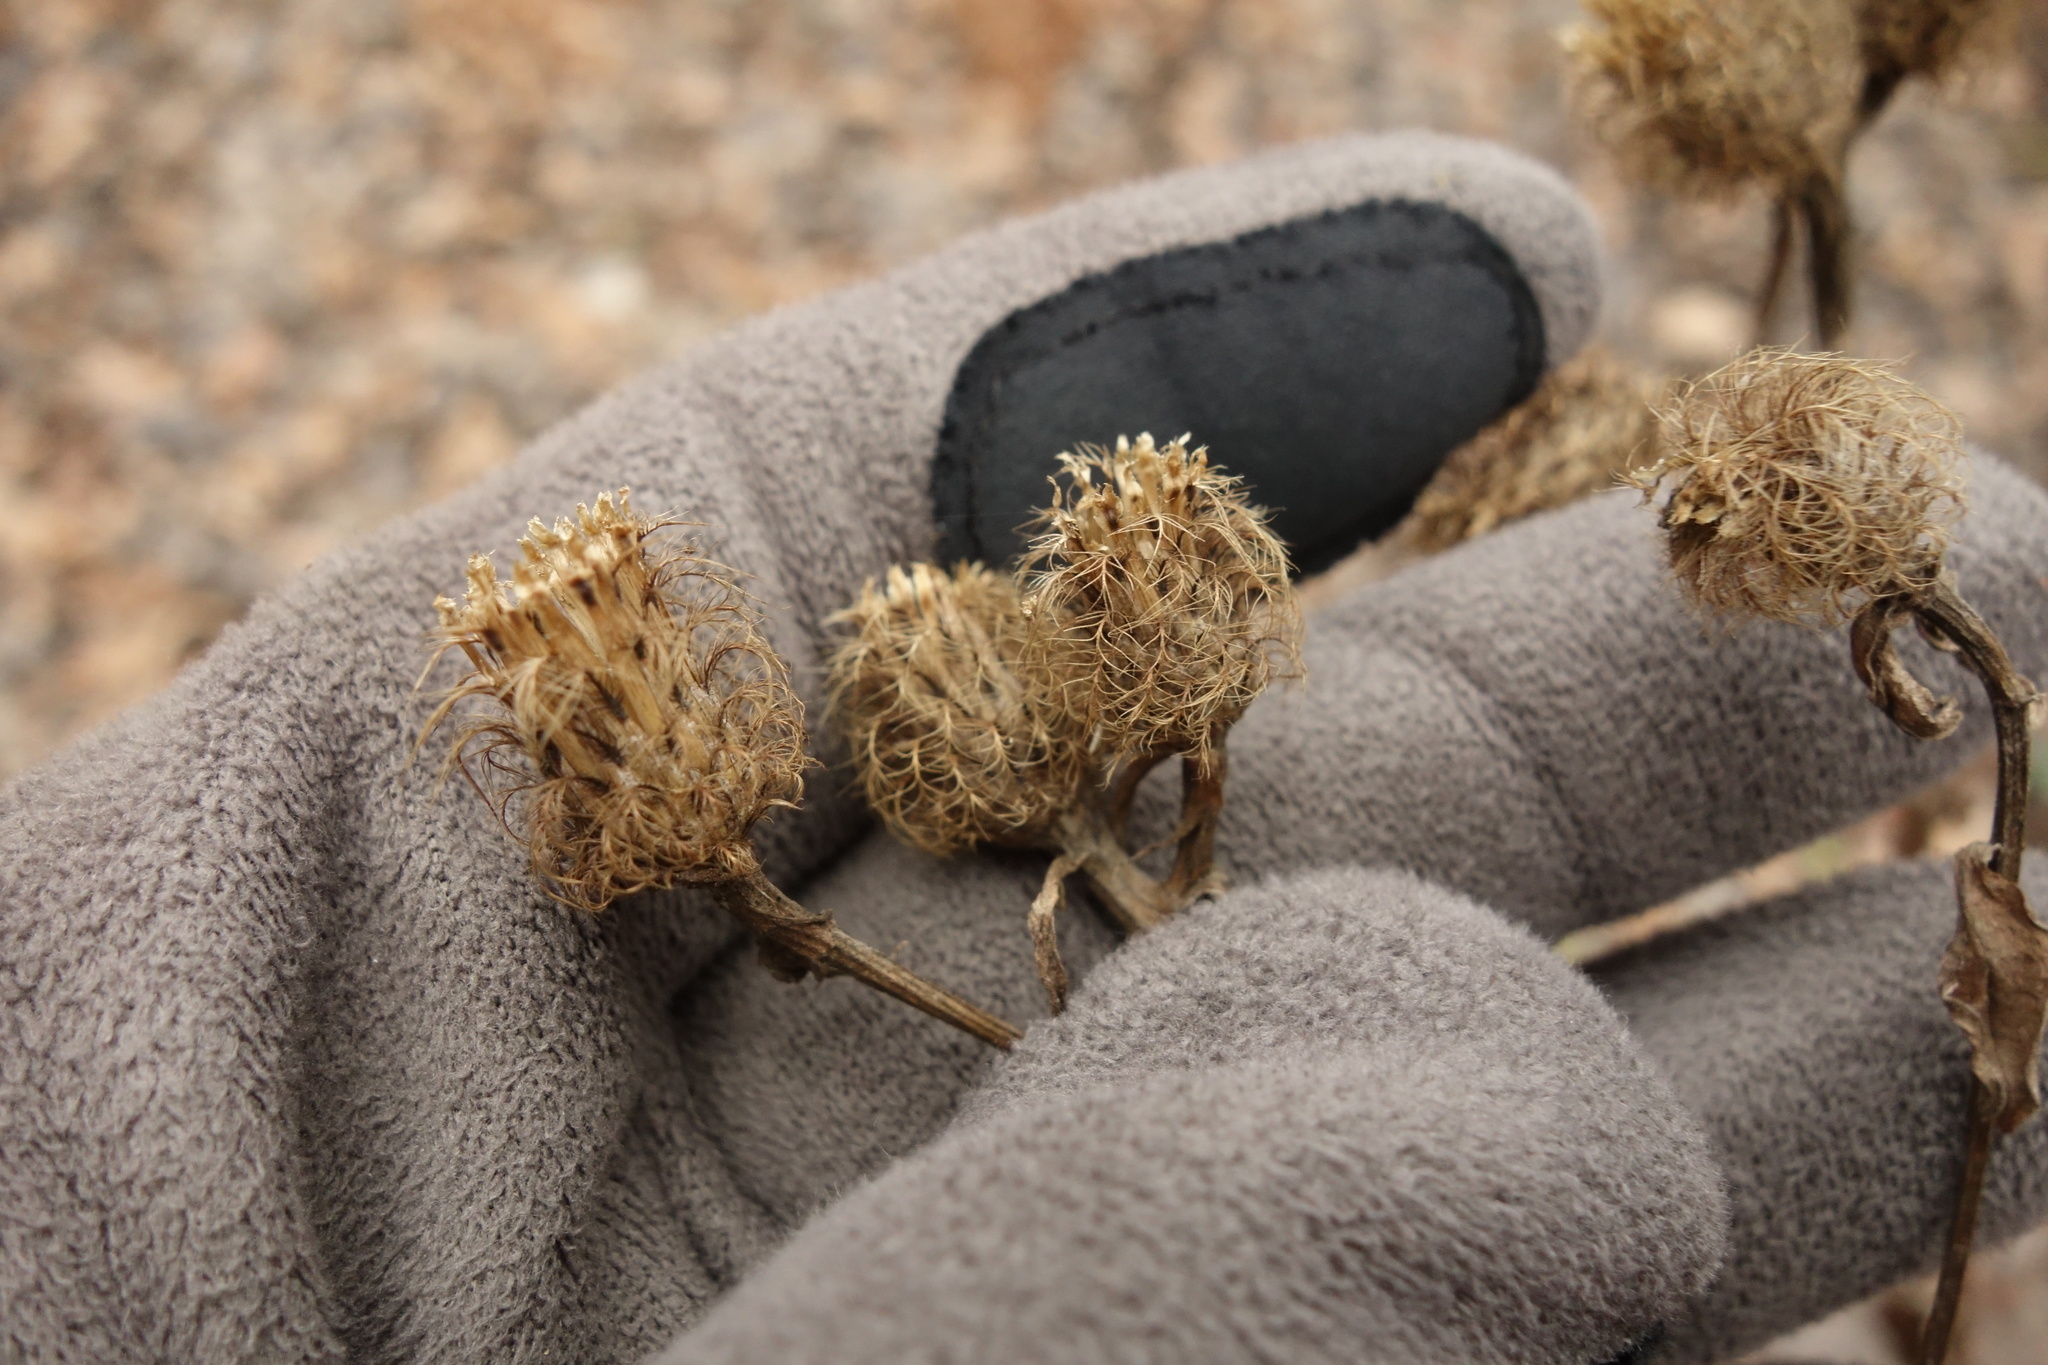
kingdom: Plantae
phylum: Tracheophyta
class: Magnoliopsida
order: Asterales
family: Asteraceae
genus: Centaurea
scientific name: Centaurea pseudophrygia
